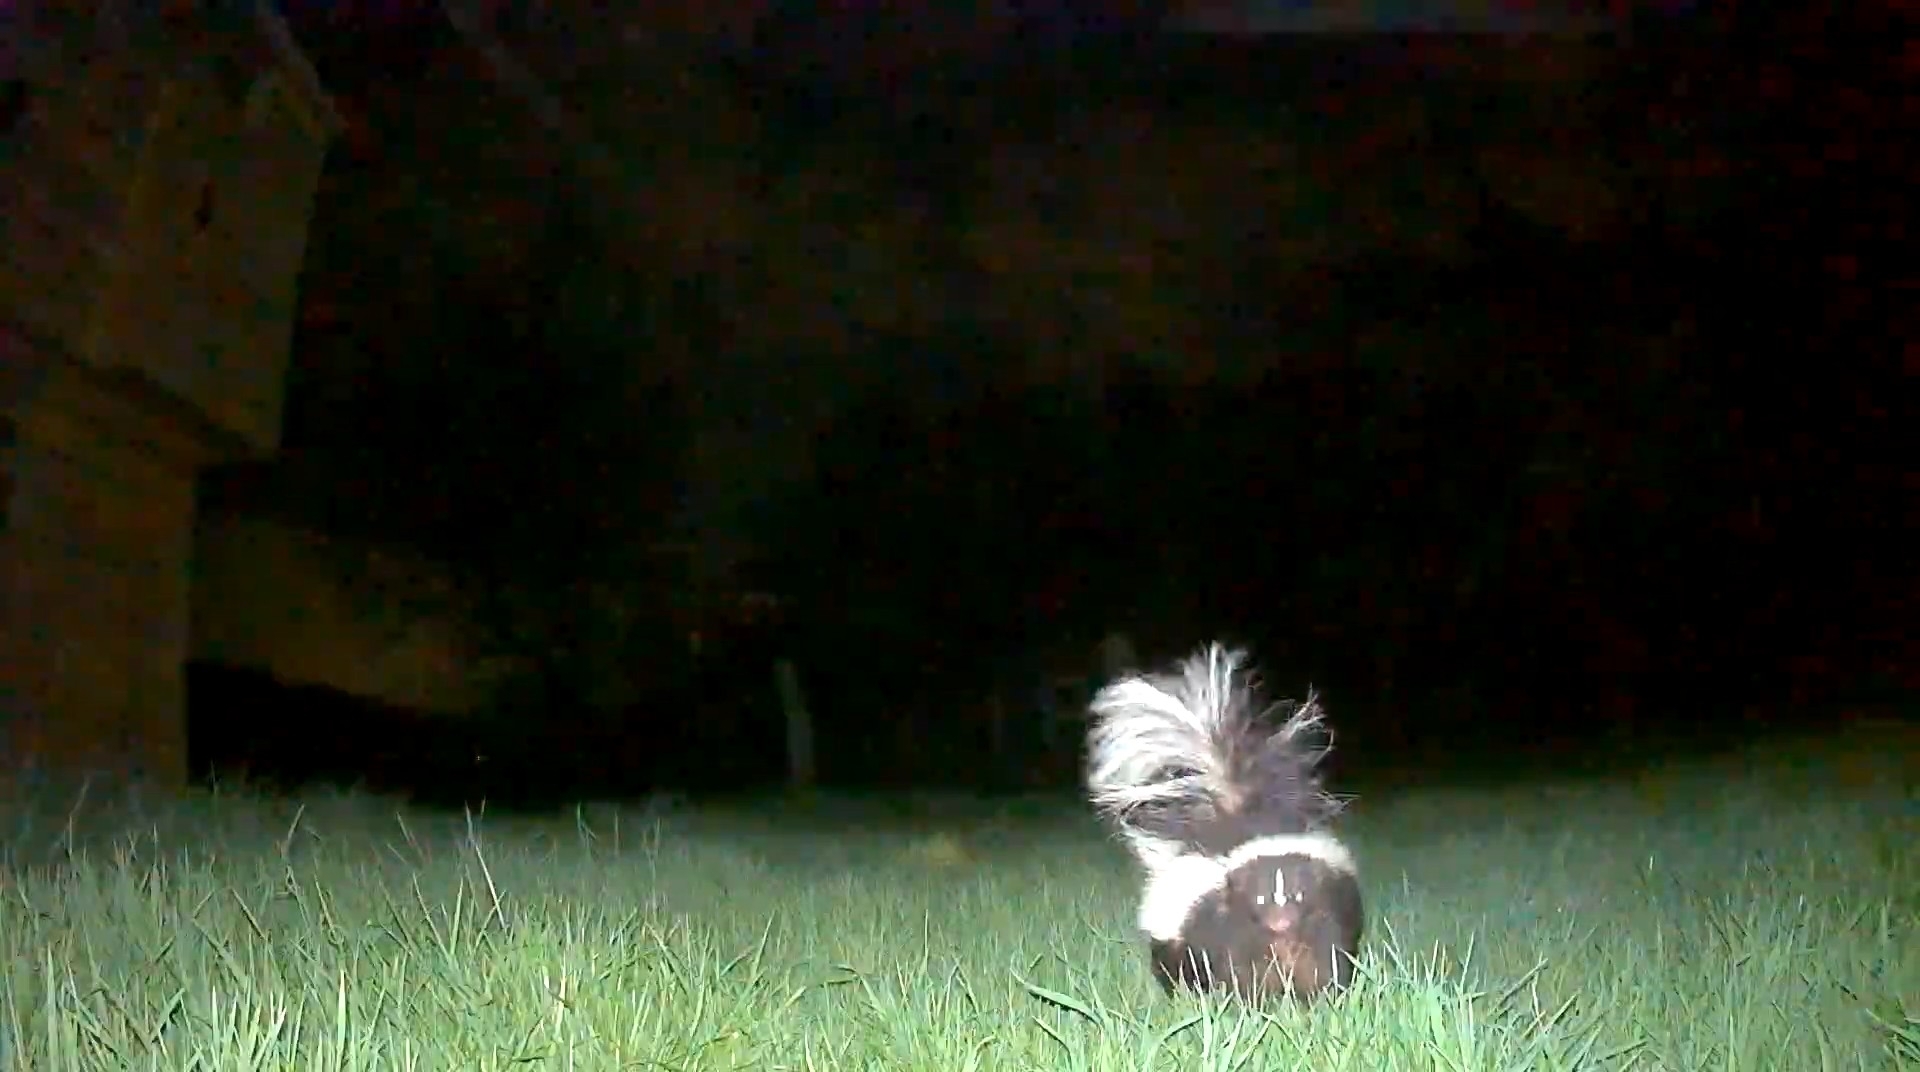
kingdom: Animalia
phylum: Chordata
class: Mammalia
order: Carnivora
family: Mephitidae
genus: Mephitis
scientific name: Mephitis mephitis
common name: Striped skunk
